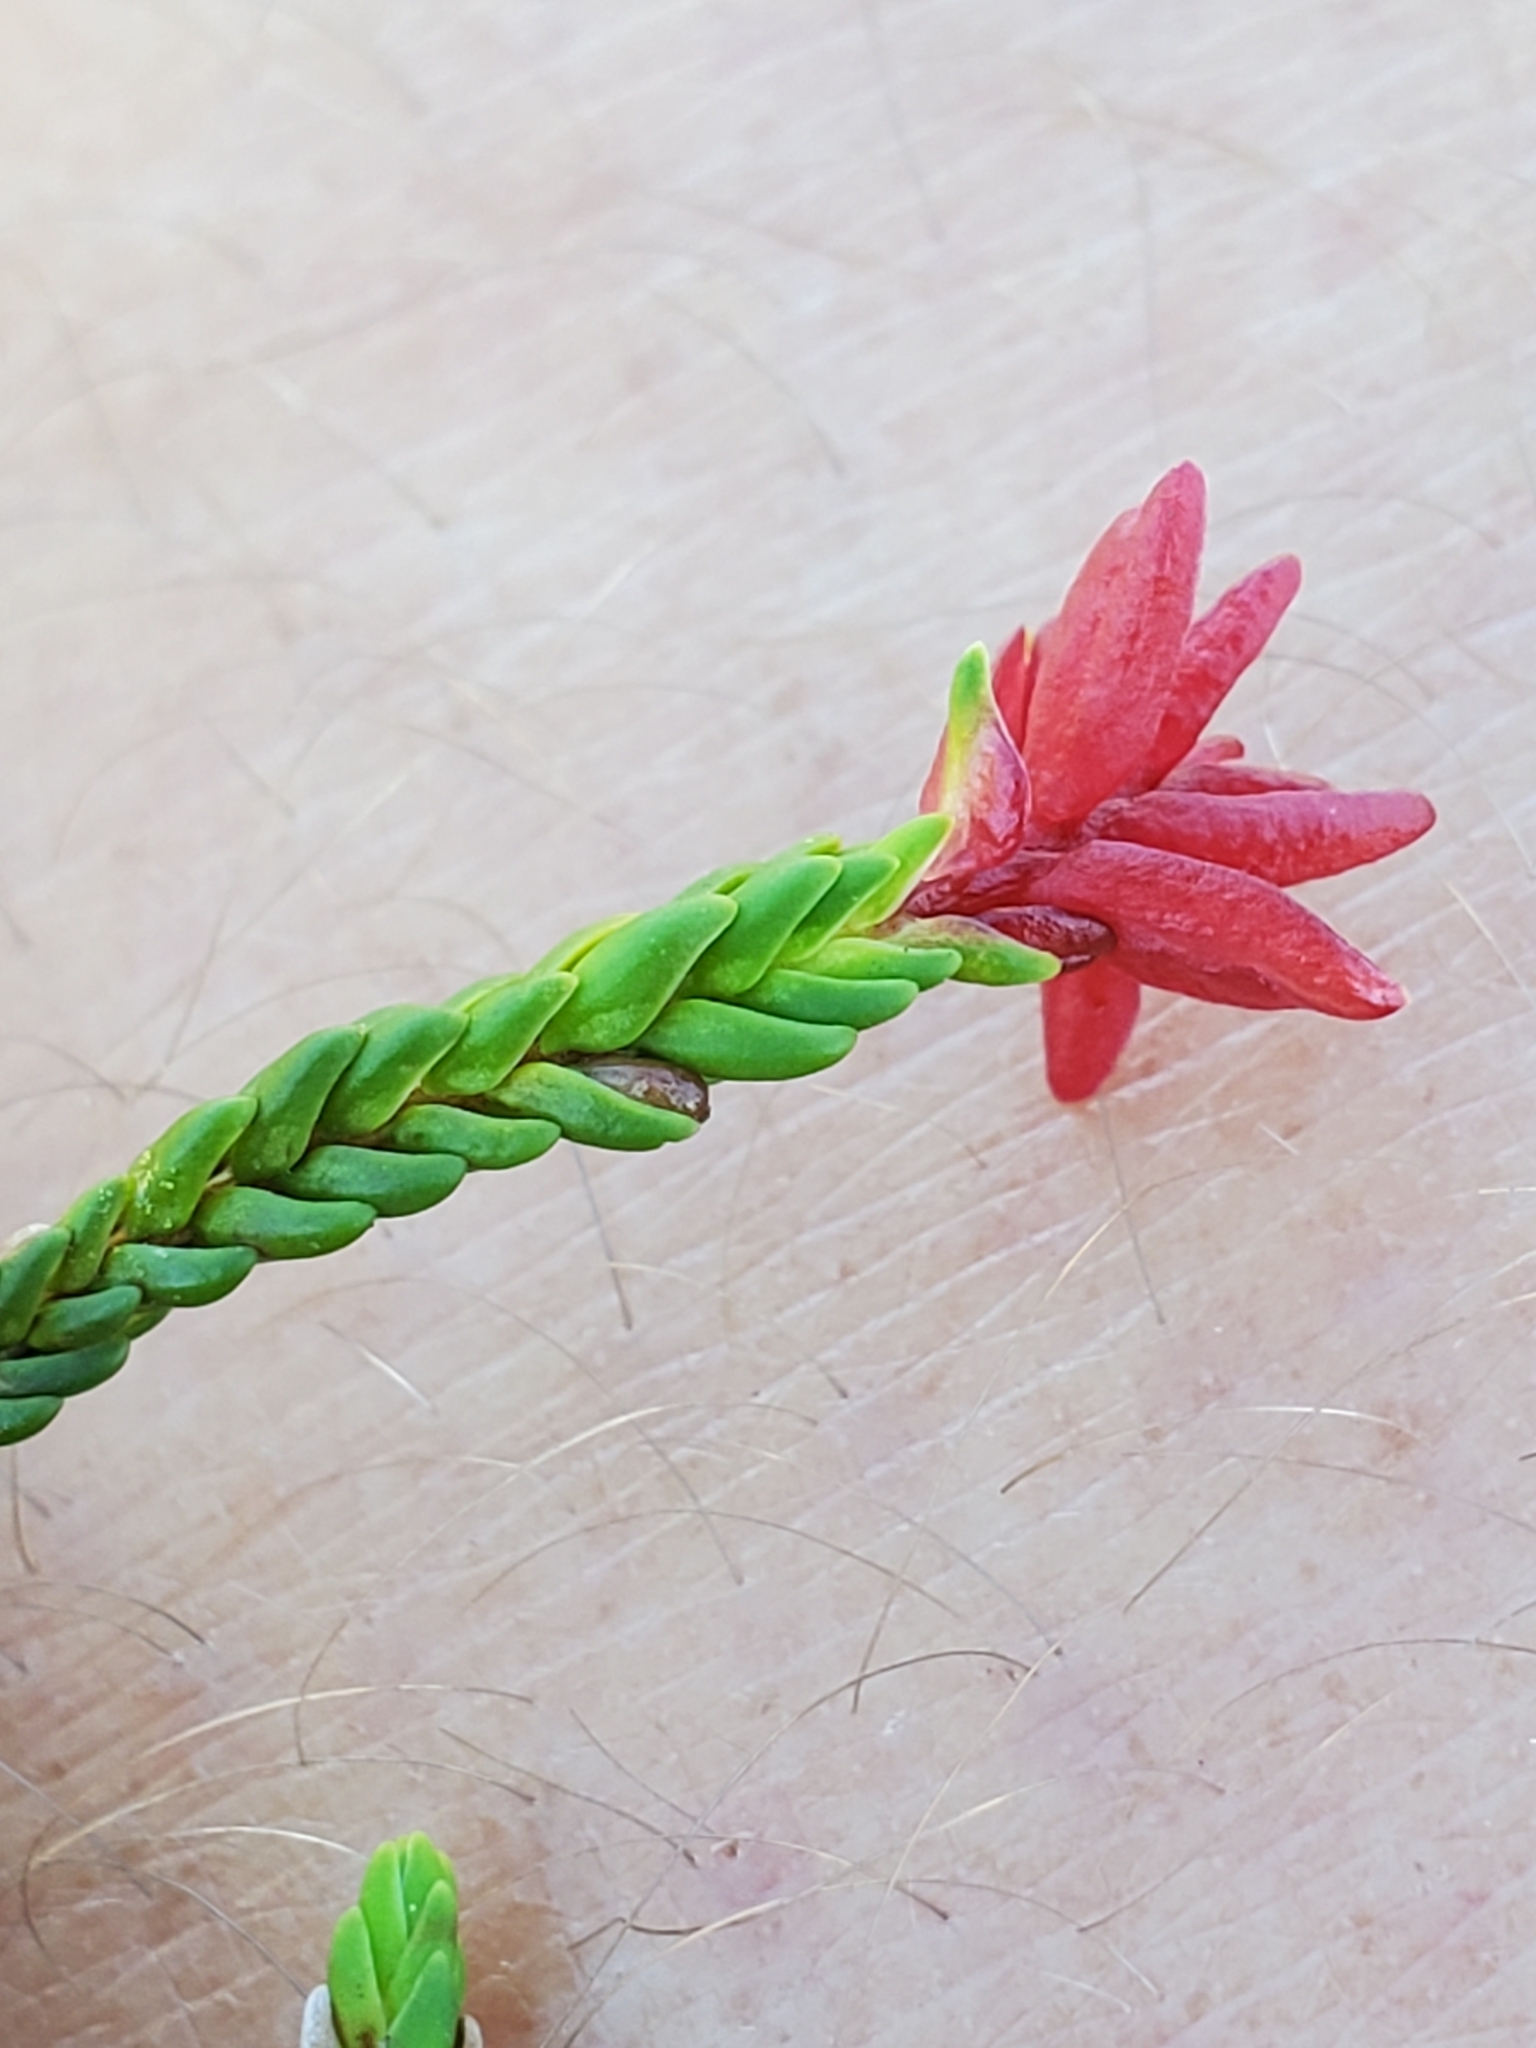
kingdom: Fungi
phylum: Basidiomycota
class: Exobasidiomycetes
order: Exobasidiales
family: Exobasidiaceae
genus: Exobasidium
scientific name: Exobasidium cassiopes
